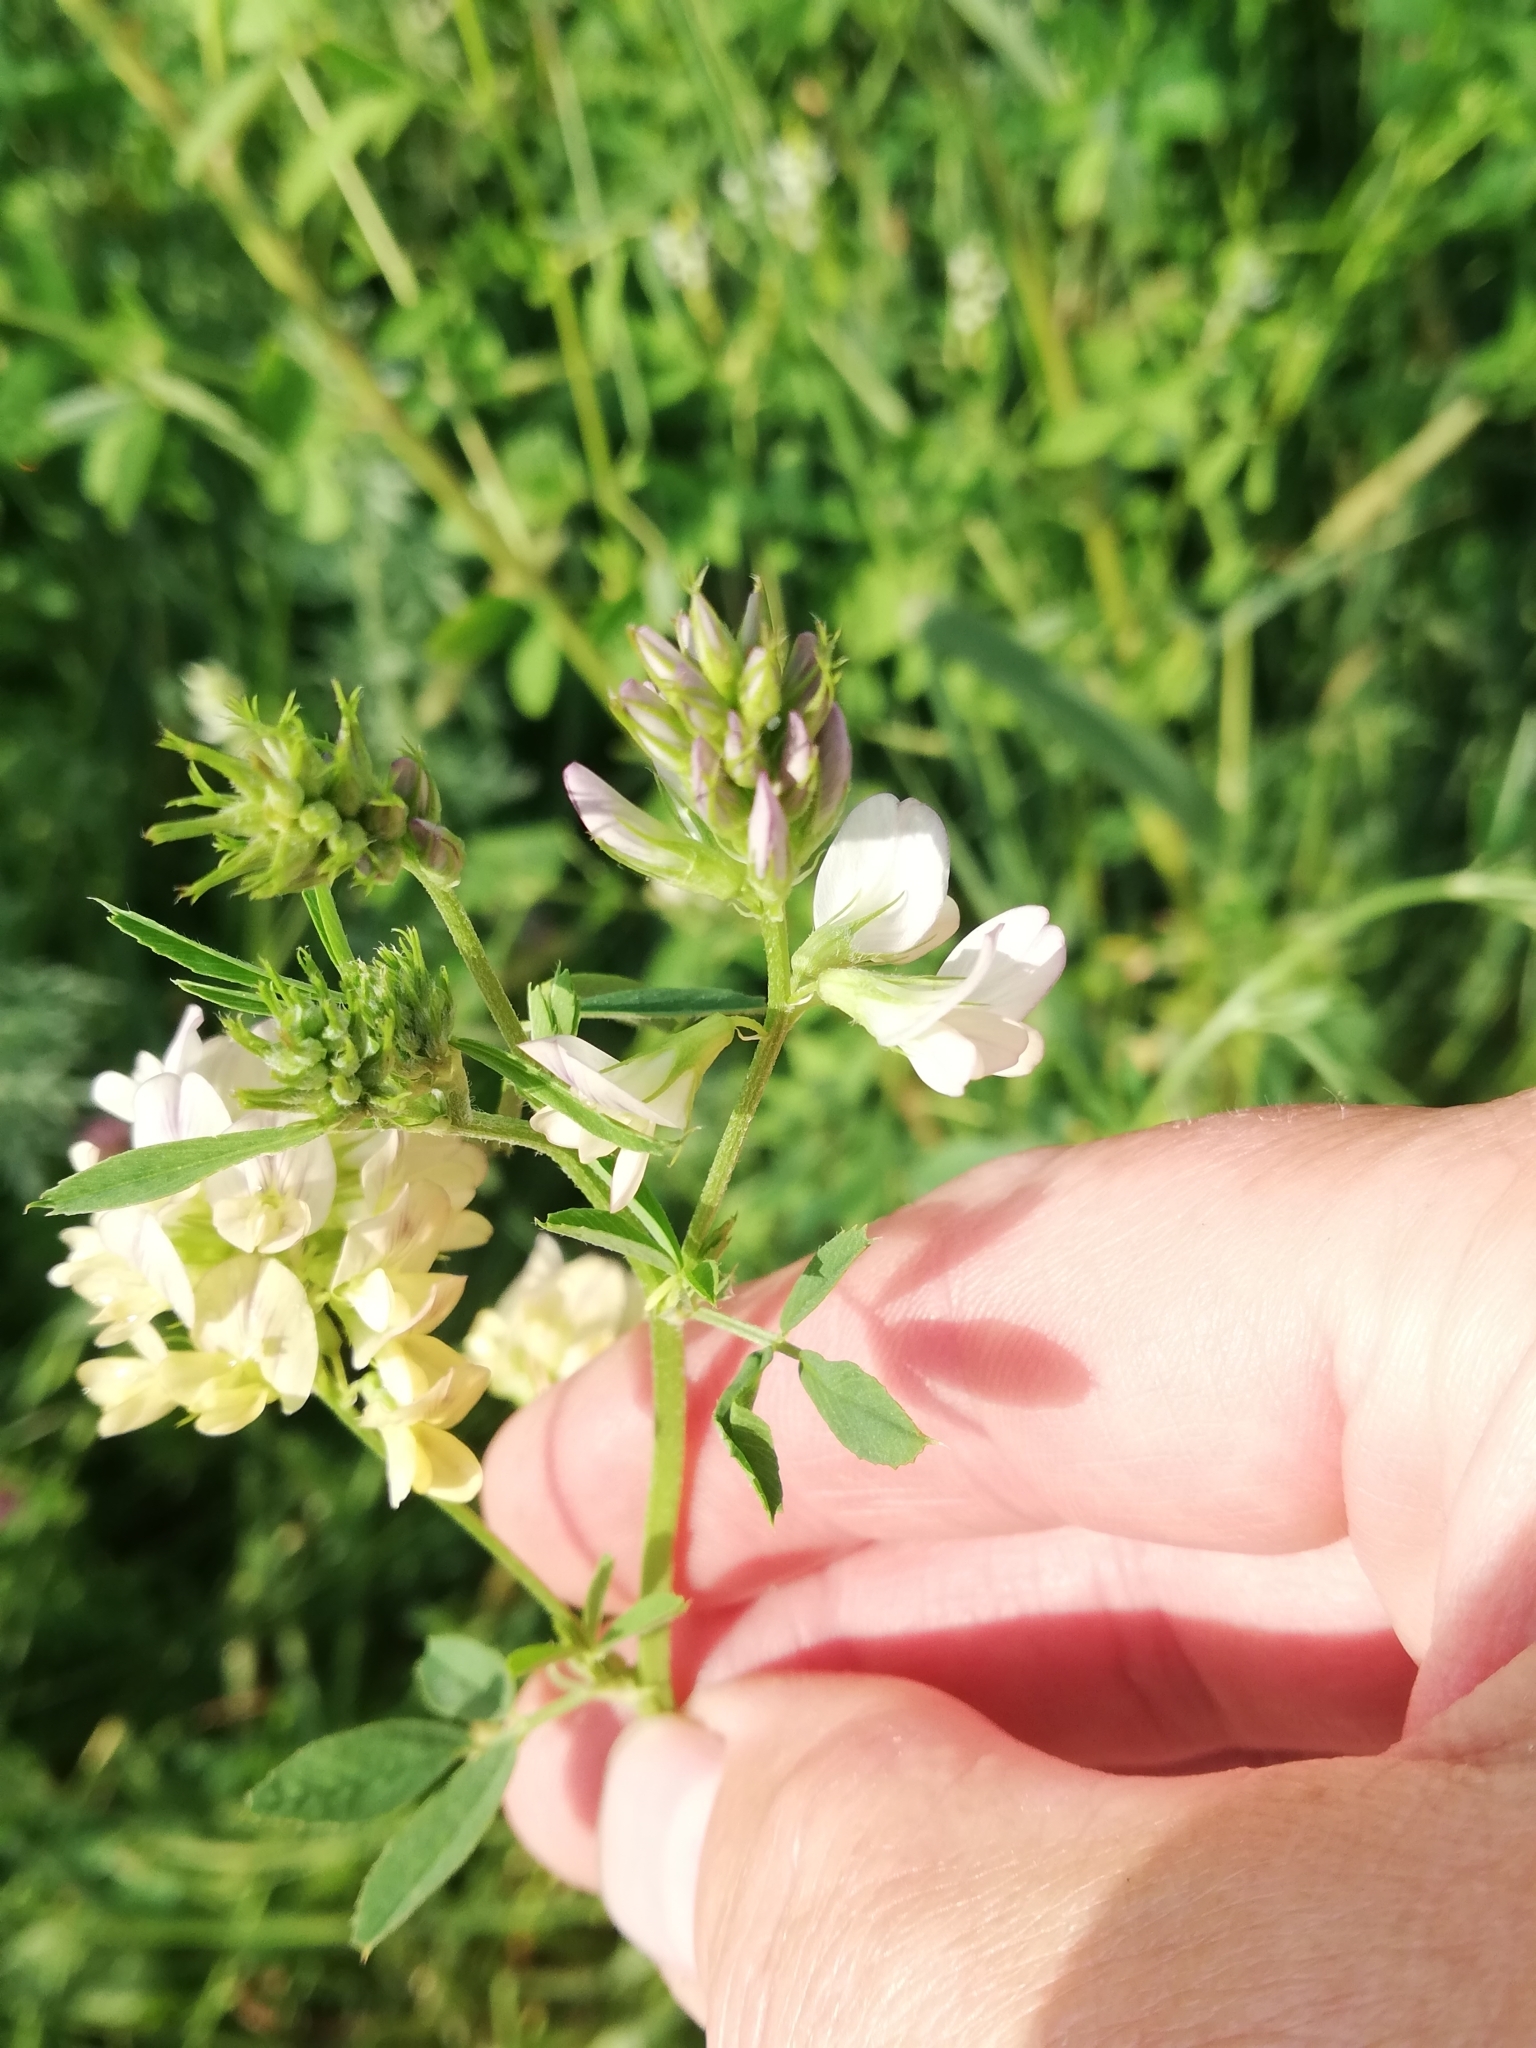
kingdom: Plantae
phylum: Tracheophyta
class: Magnoliopsida
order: Fabales
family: Fabaceae
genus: Medicago
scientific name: Medicago varia
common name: Sand lucerne
